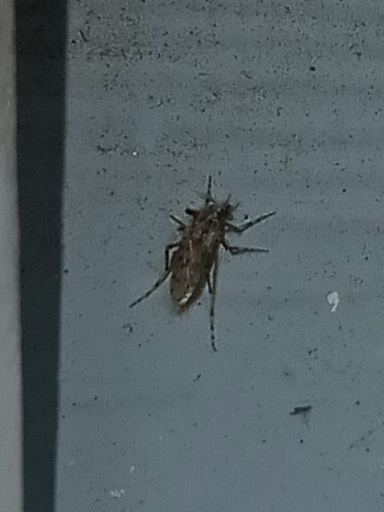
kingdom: Animalia
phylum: Arthropoda
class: Insecta
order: Diptera
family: Chaoboridae
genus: Chaoborus
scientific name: Chaoborus punctipennis
